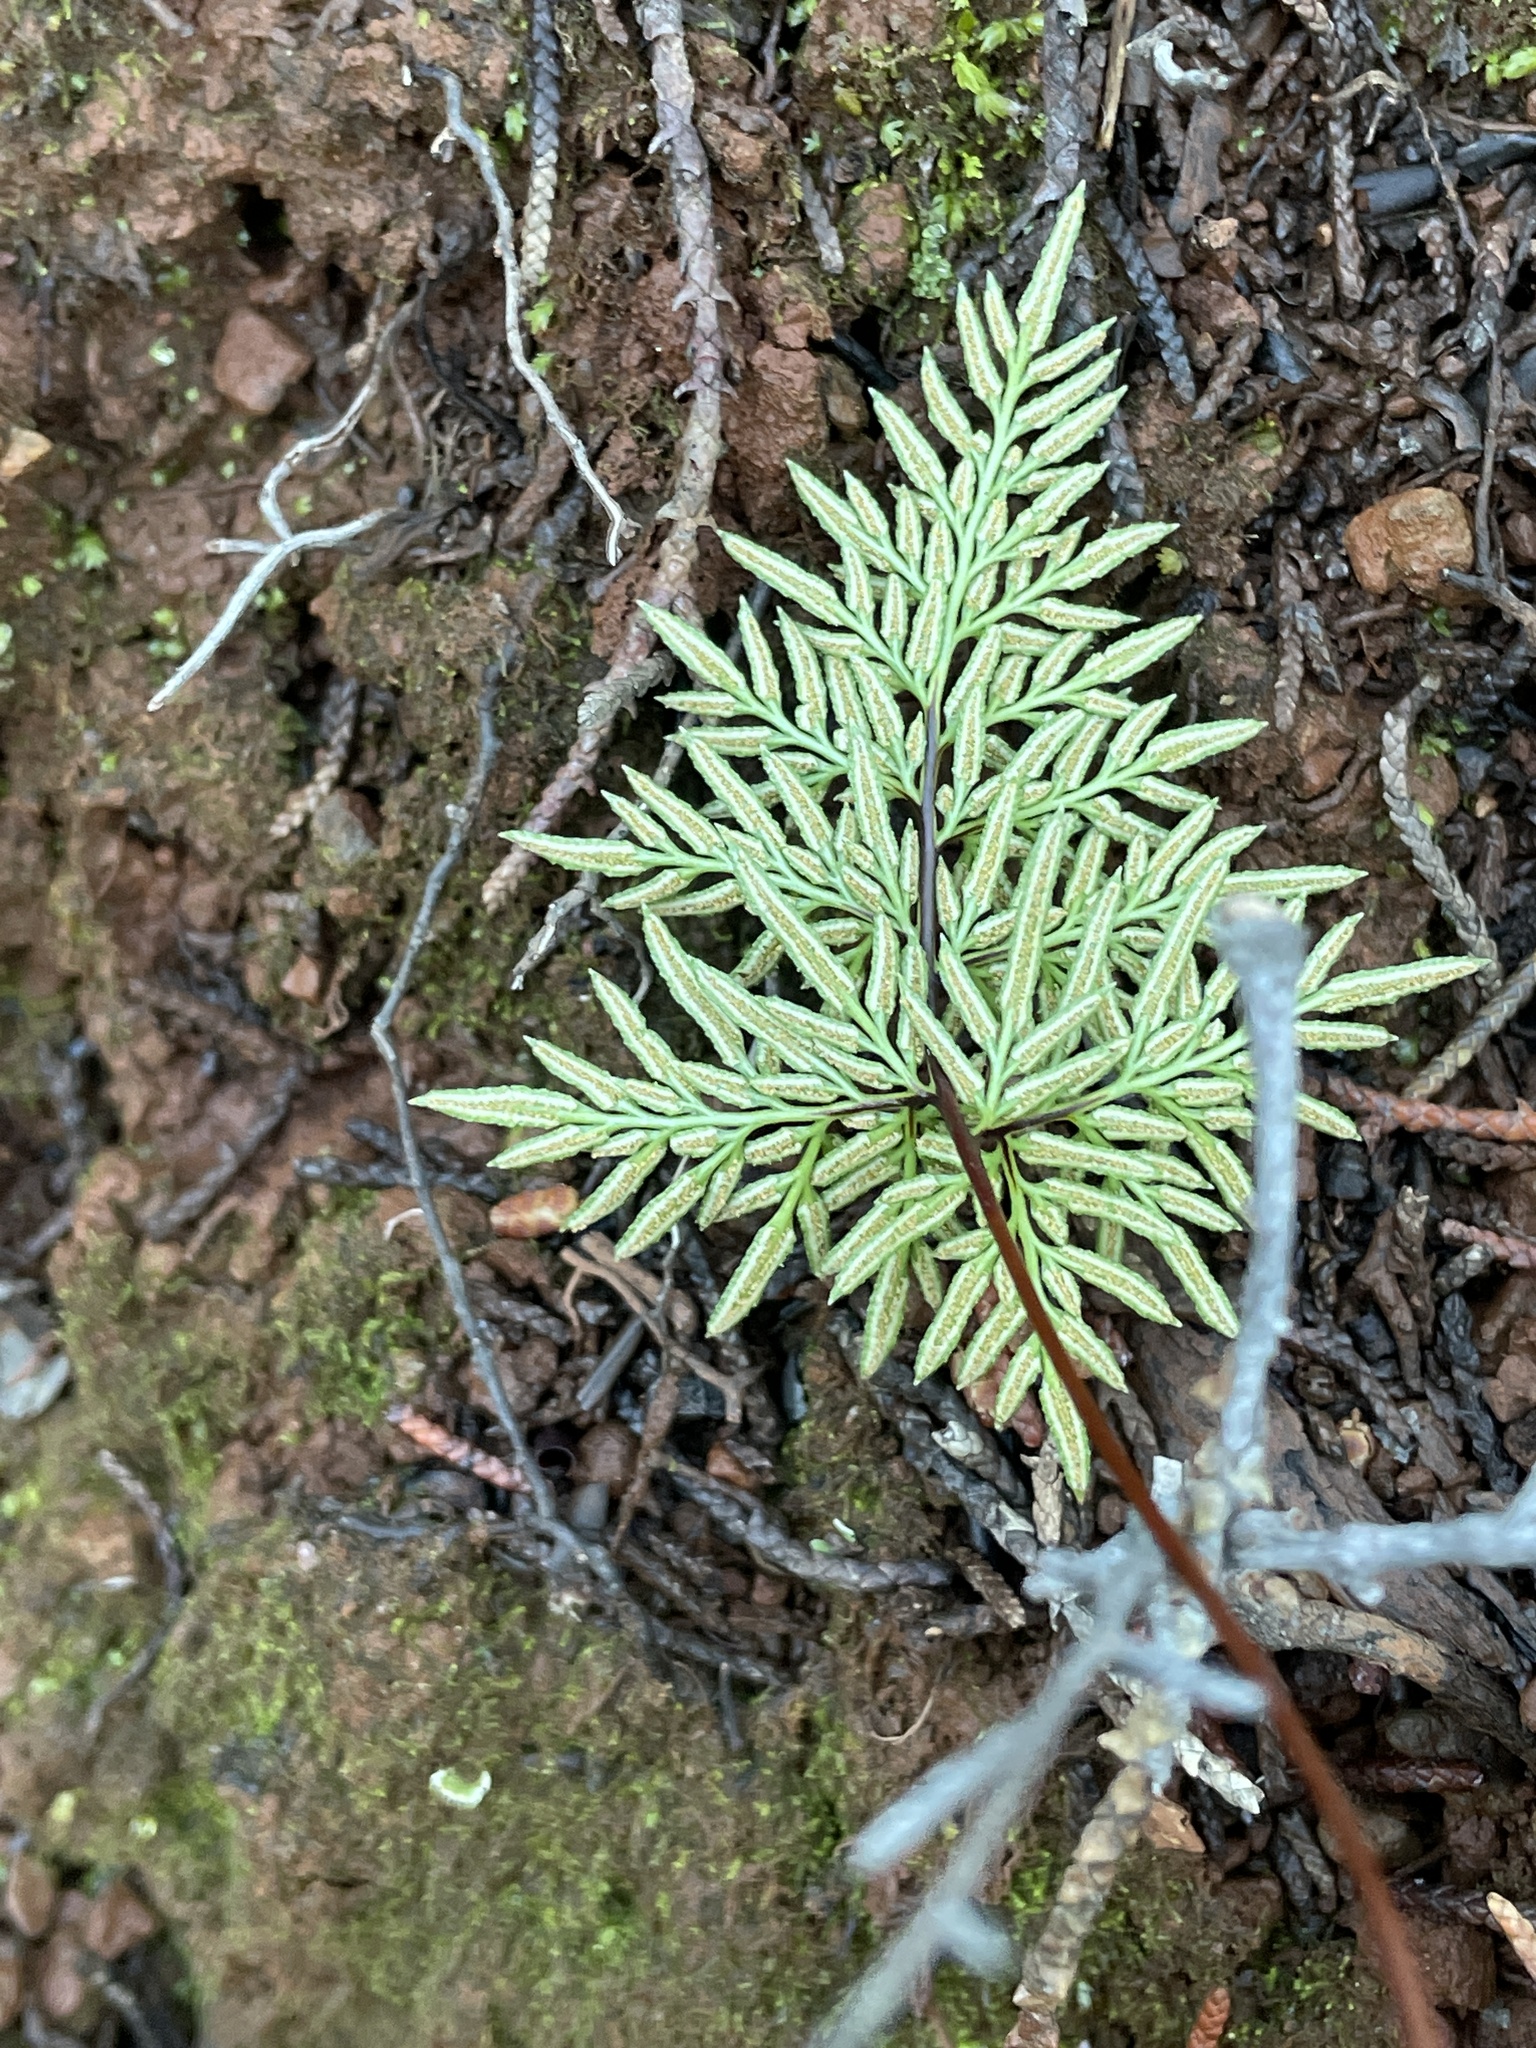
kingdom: Plantae
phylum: Tracheophyta
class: Polypodiopsida
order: Polypodiales
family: Pteridaceae
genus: Aspidotis
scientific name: Aspidotis densa
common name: Indian's dream
